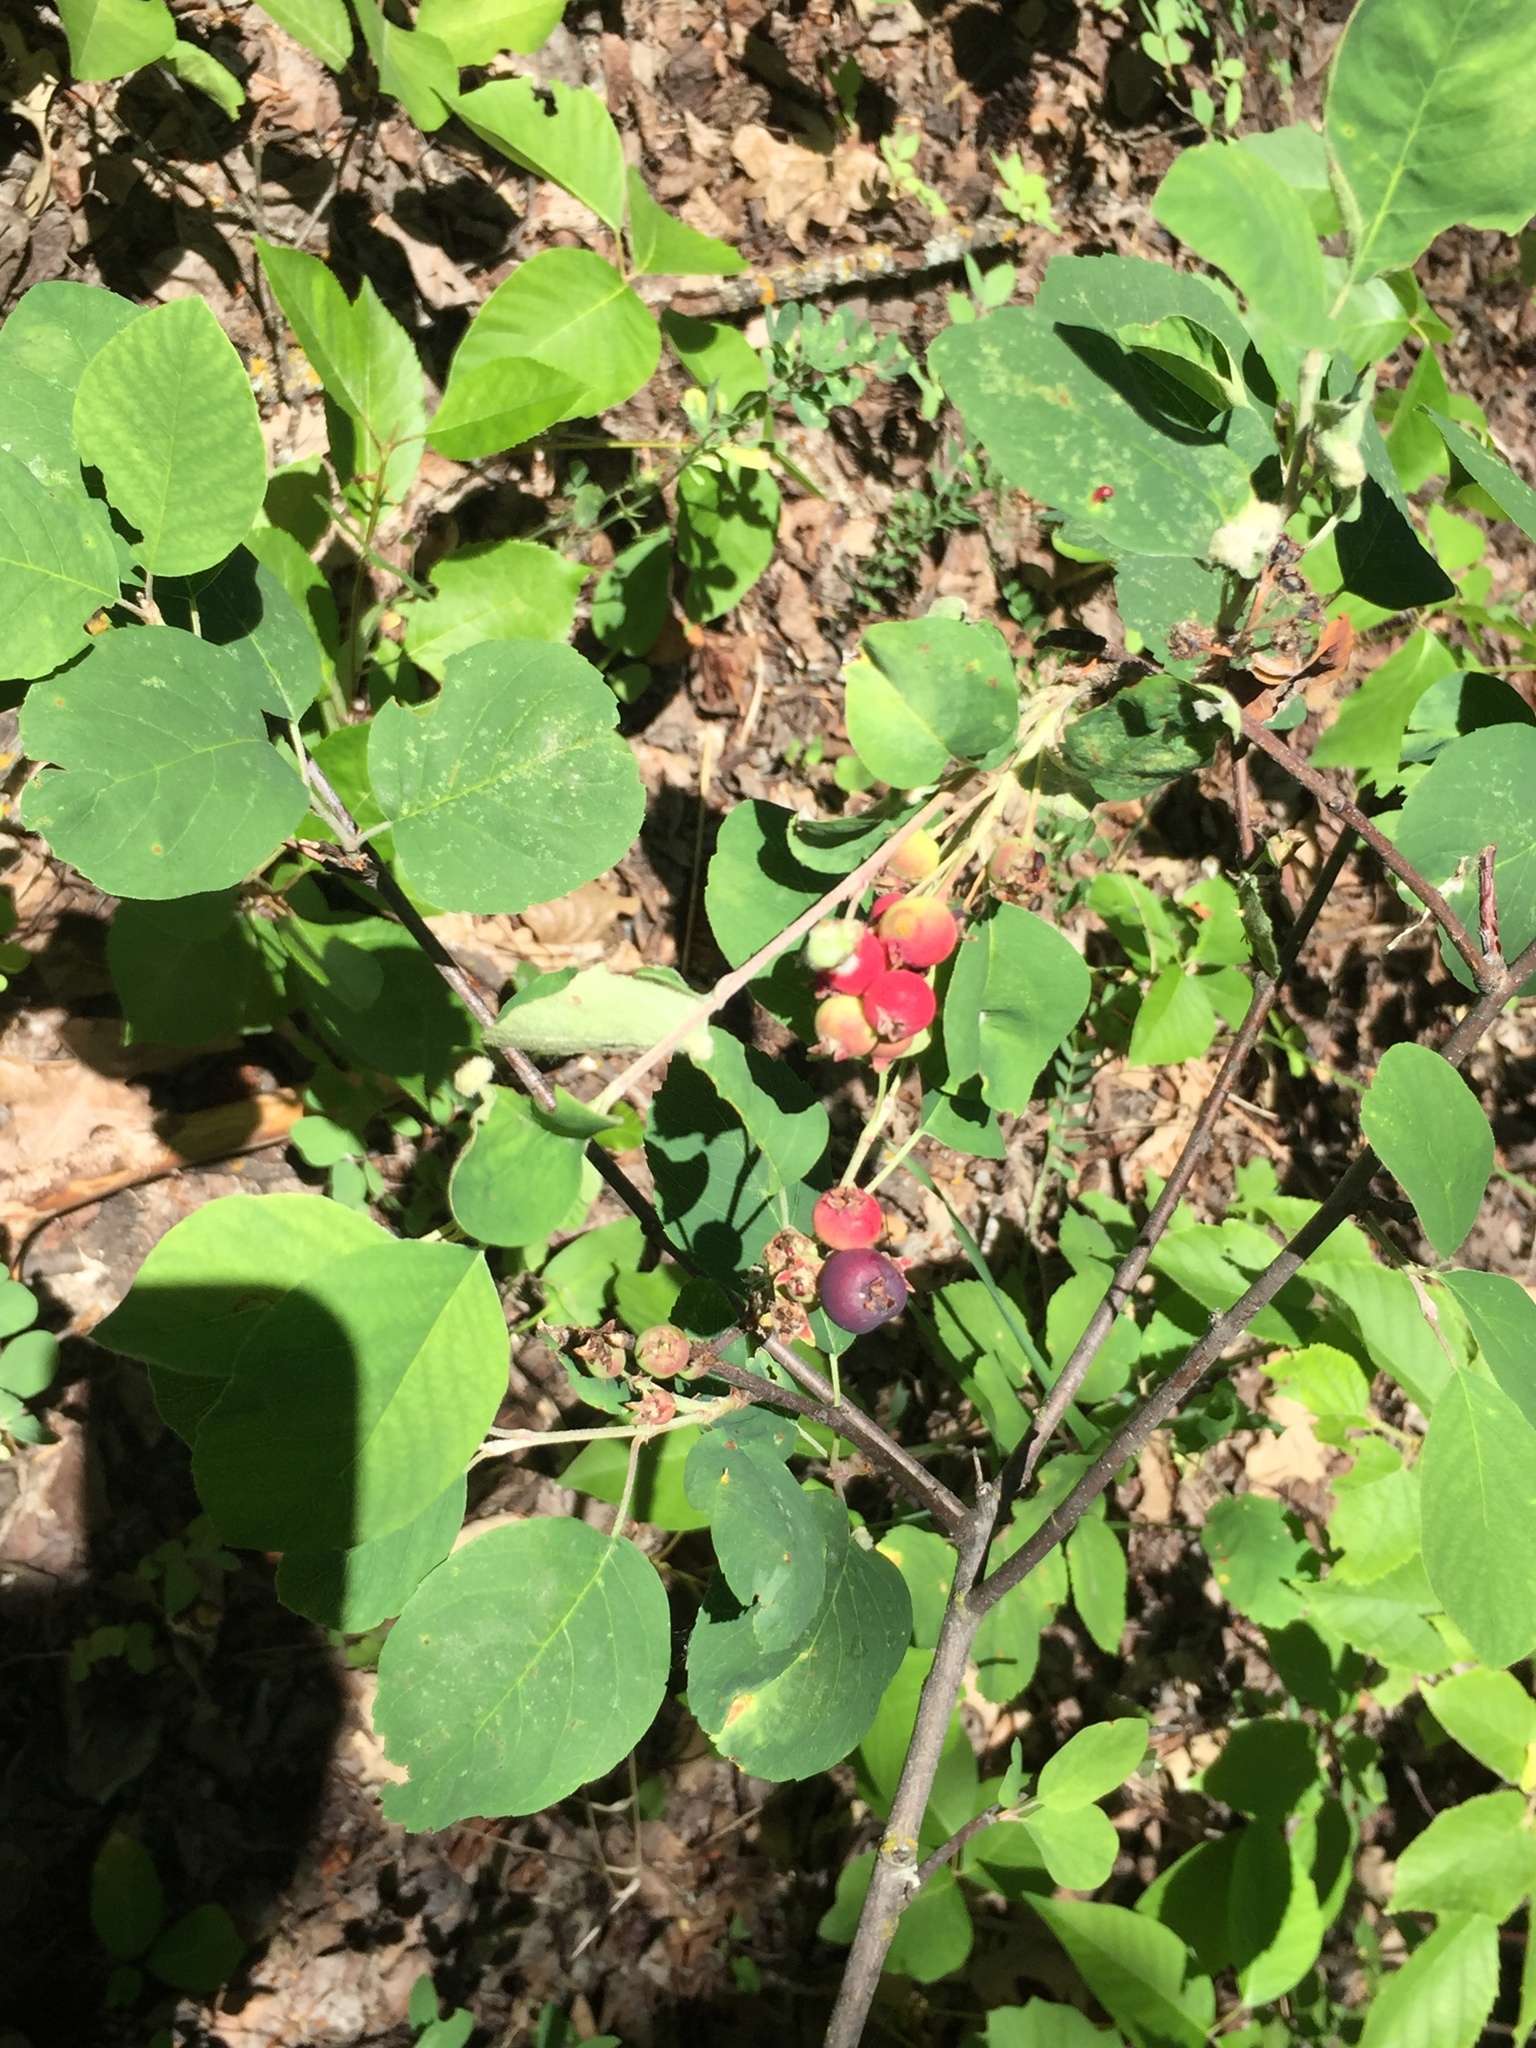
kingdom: Plantae
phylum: Tracheophyta
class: Magnoliopsida
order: Rosales
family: Rosaceae
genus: Amelanchier
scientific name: Amelanchier alnifolia
